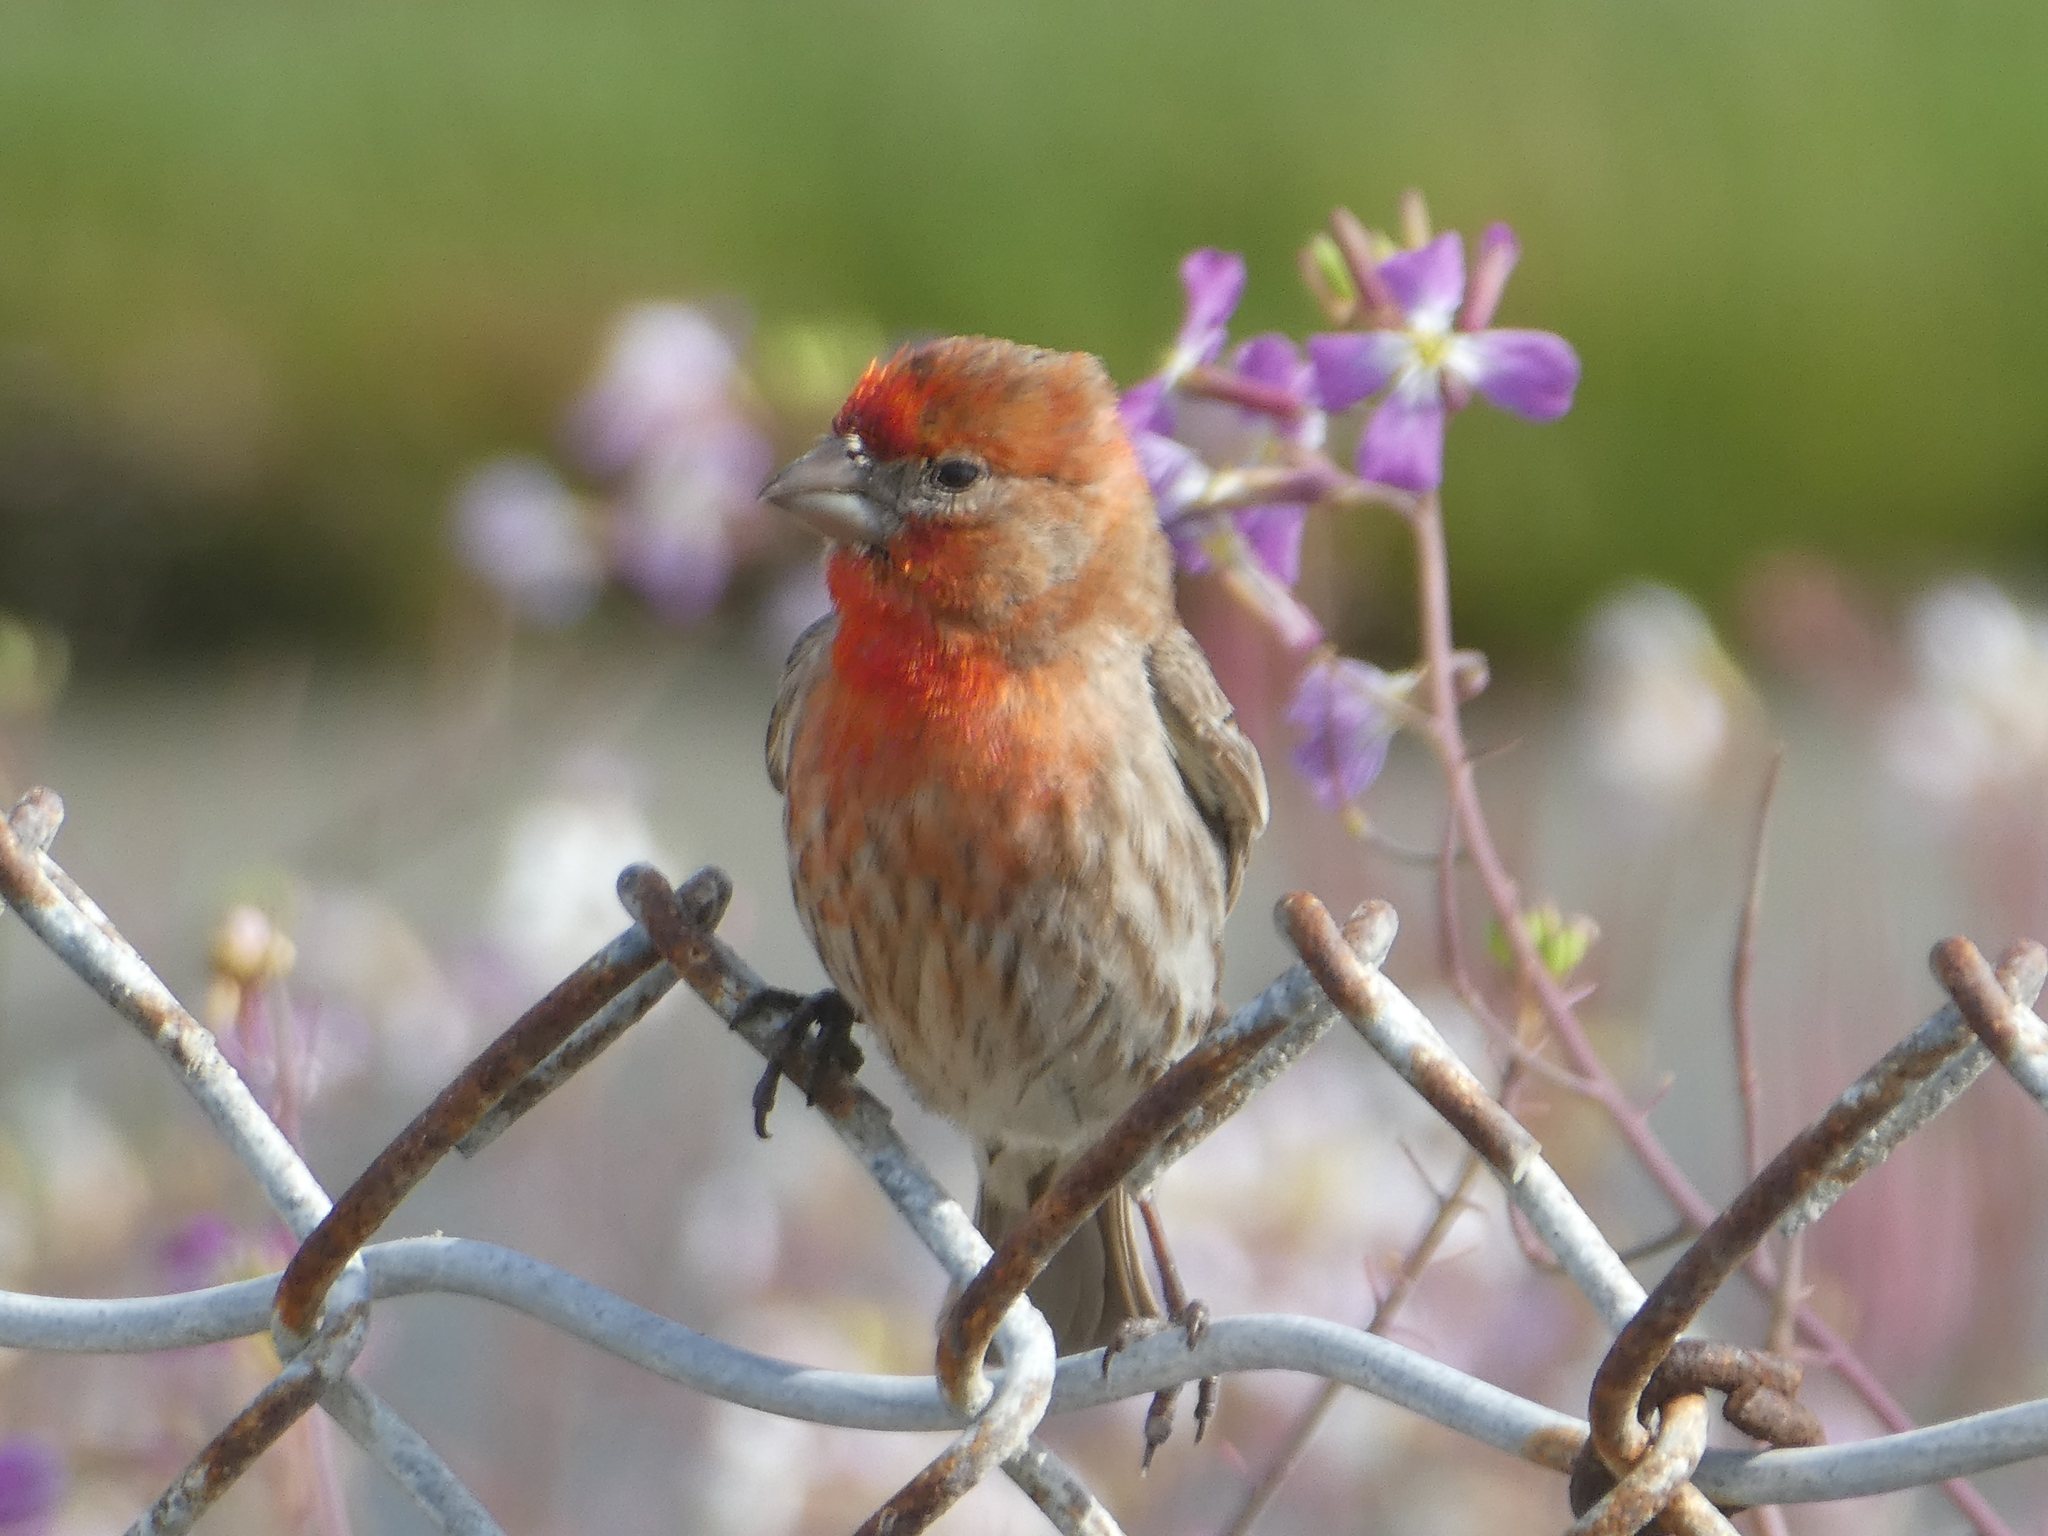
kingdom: Animalia
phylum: Chordata
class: Aves
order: Passeriformes
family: Fringillidae
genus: Haemorhous
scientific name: Haemorhous mexicanus
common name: House finch
